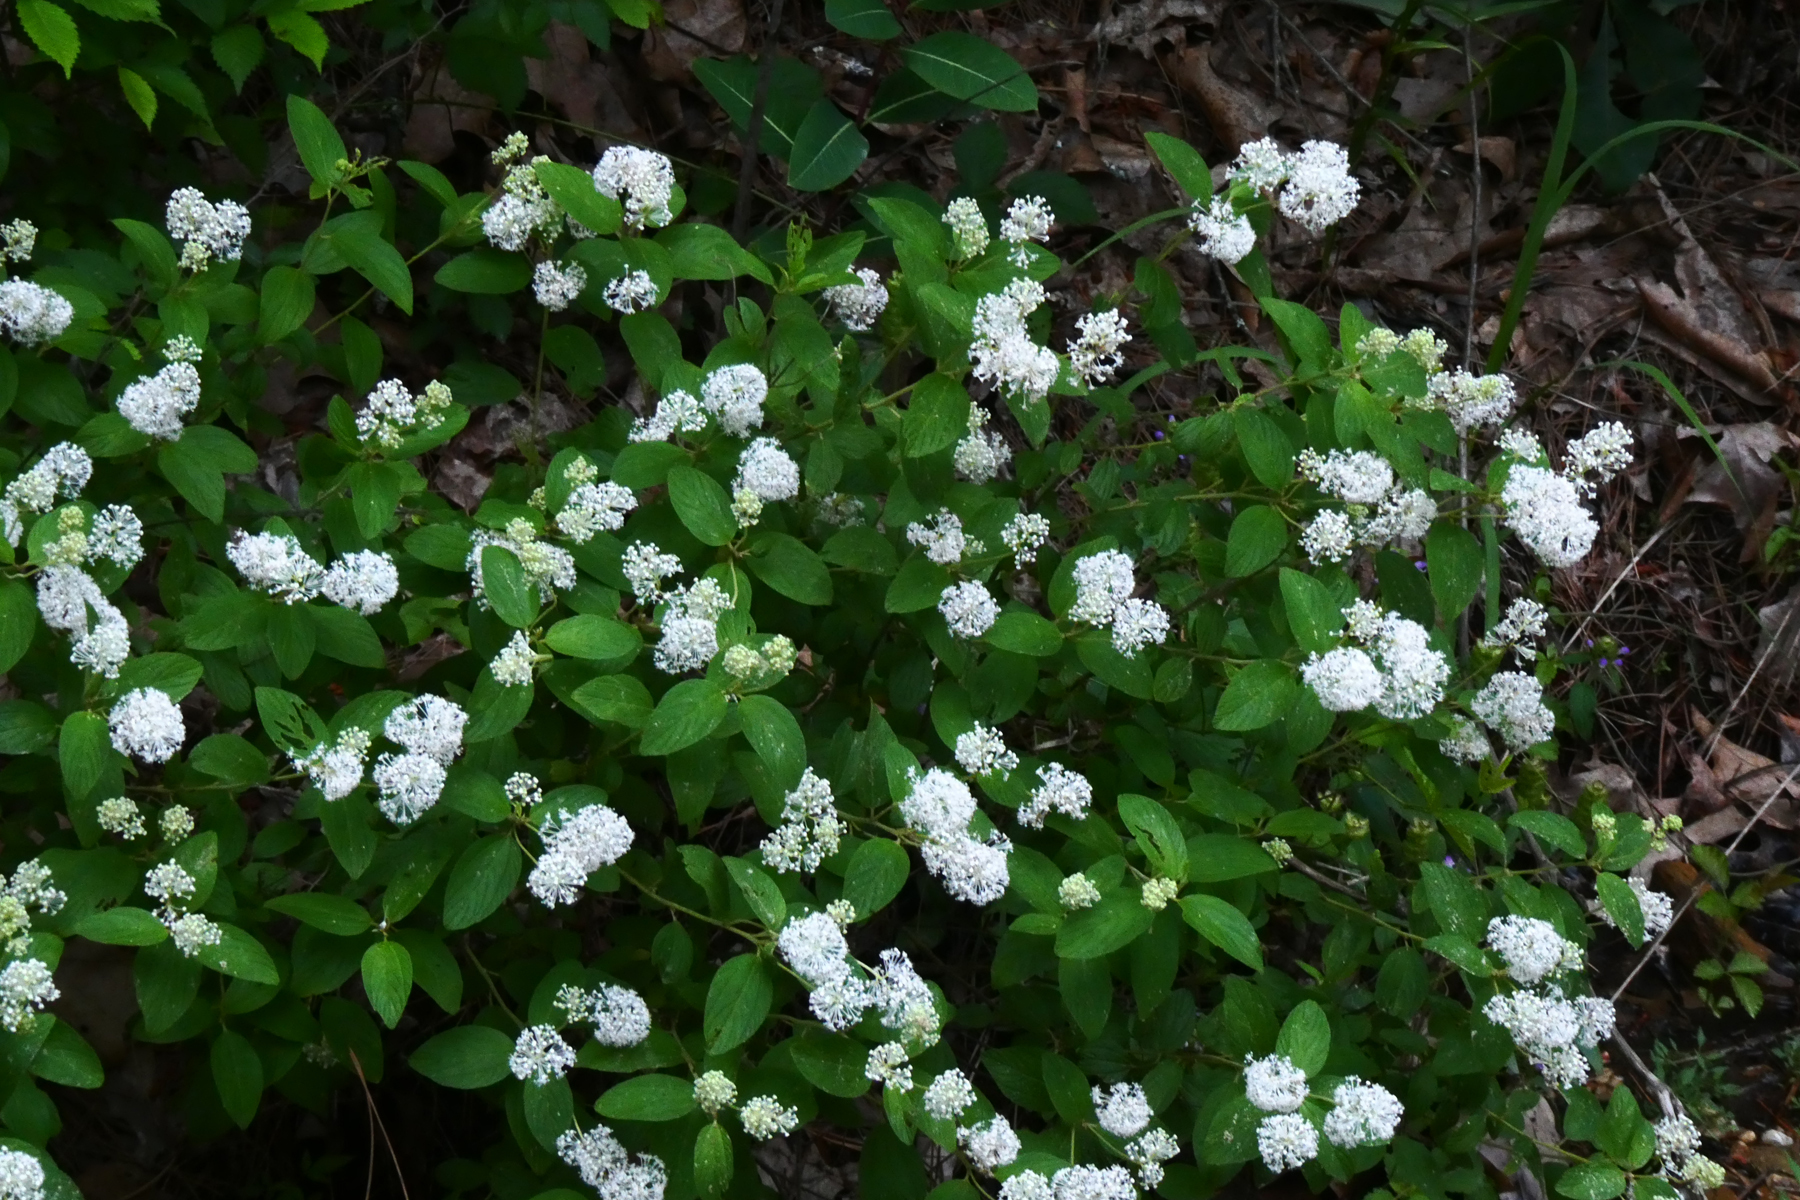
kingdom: Plantae
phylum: Tracheophyta
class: Magnoliopsida
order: Rosales
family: Rhamnaceae
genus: Ceanothus
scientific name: Ceanothus americanus
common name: Redroot
